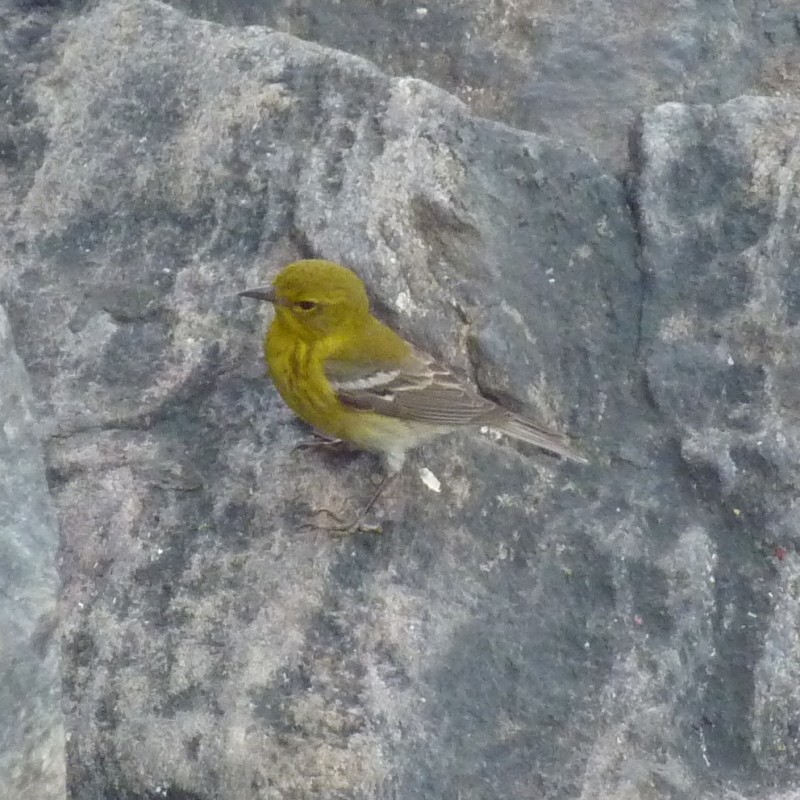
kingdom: Animalia
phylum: Chordata
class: Aves
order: Passeriformes
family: Parulidae
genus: Setophaga
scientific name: Setophaga pinus
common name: Pine warbler
